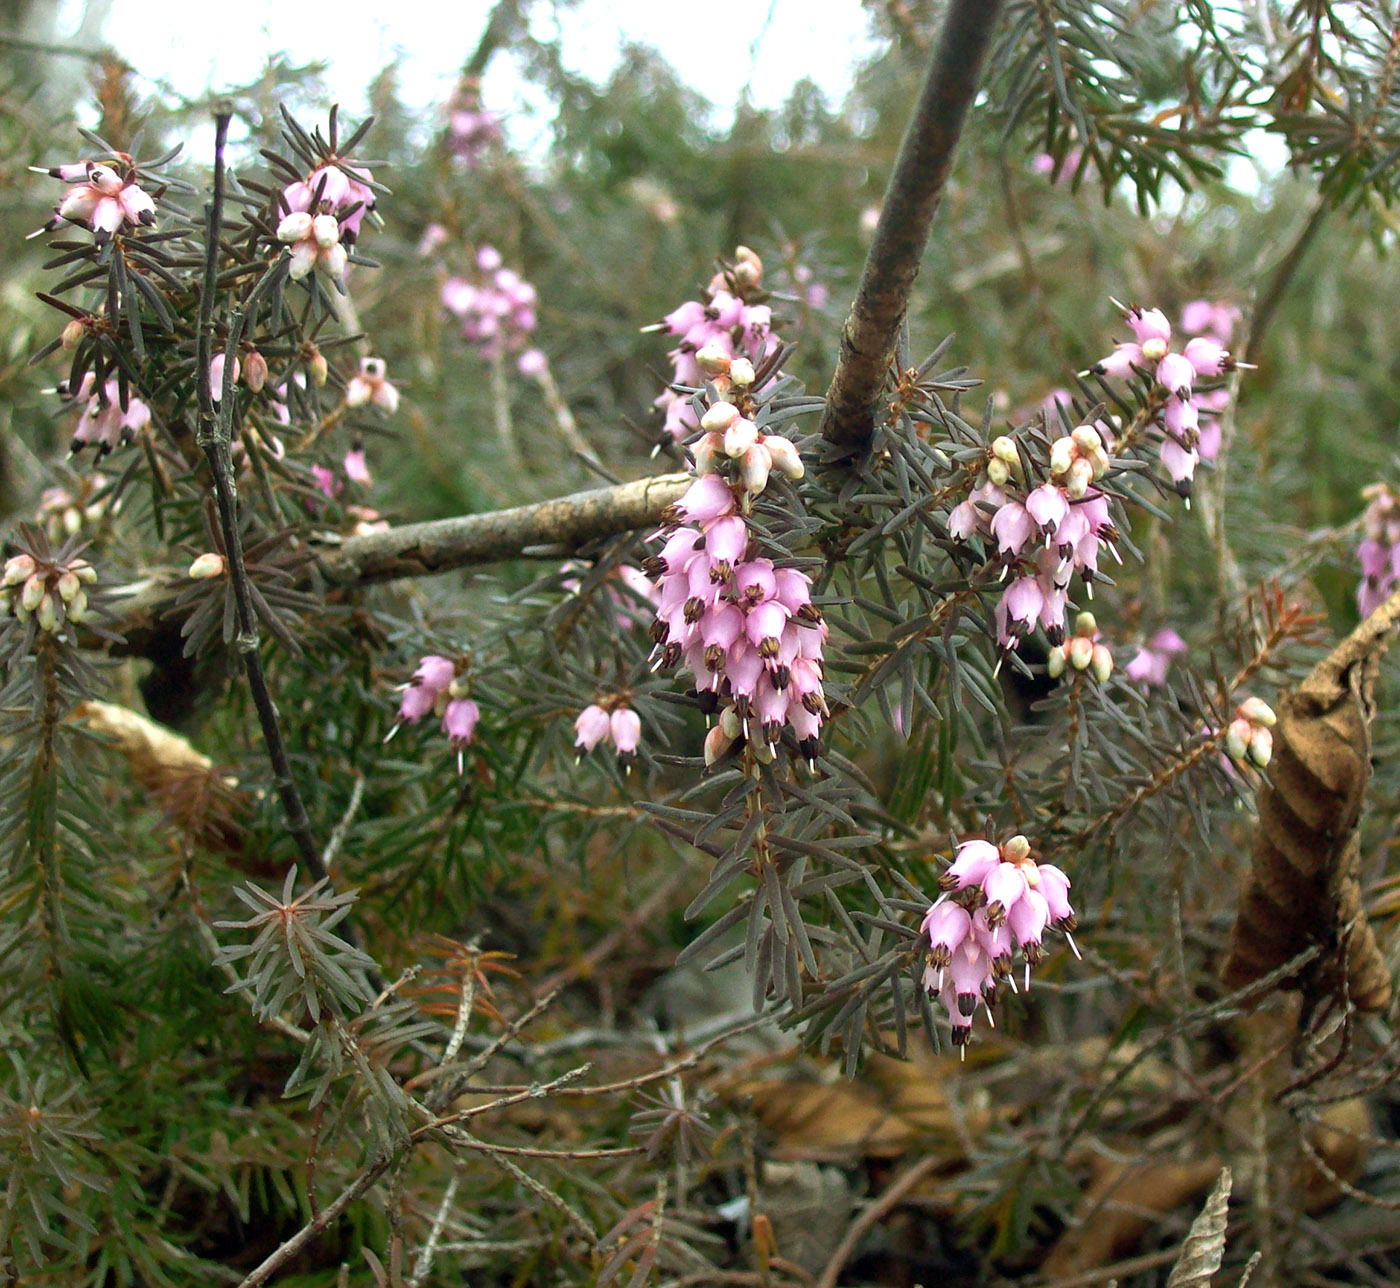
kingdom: Plantae
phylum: Tracheophyta
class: Magnoliopsida
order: Ericales
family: Ericaceae
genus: Erica
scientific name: Erica carnea
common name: Winter heath
